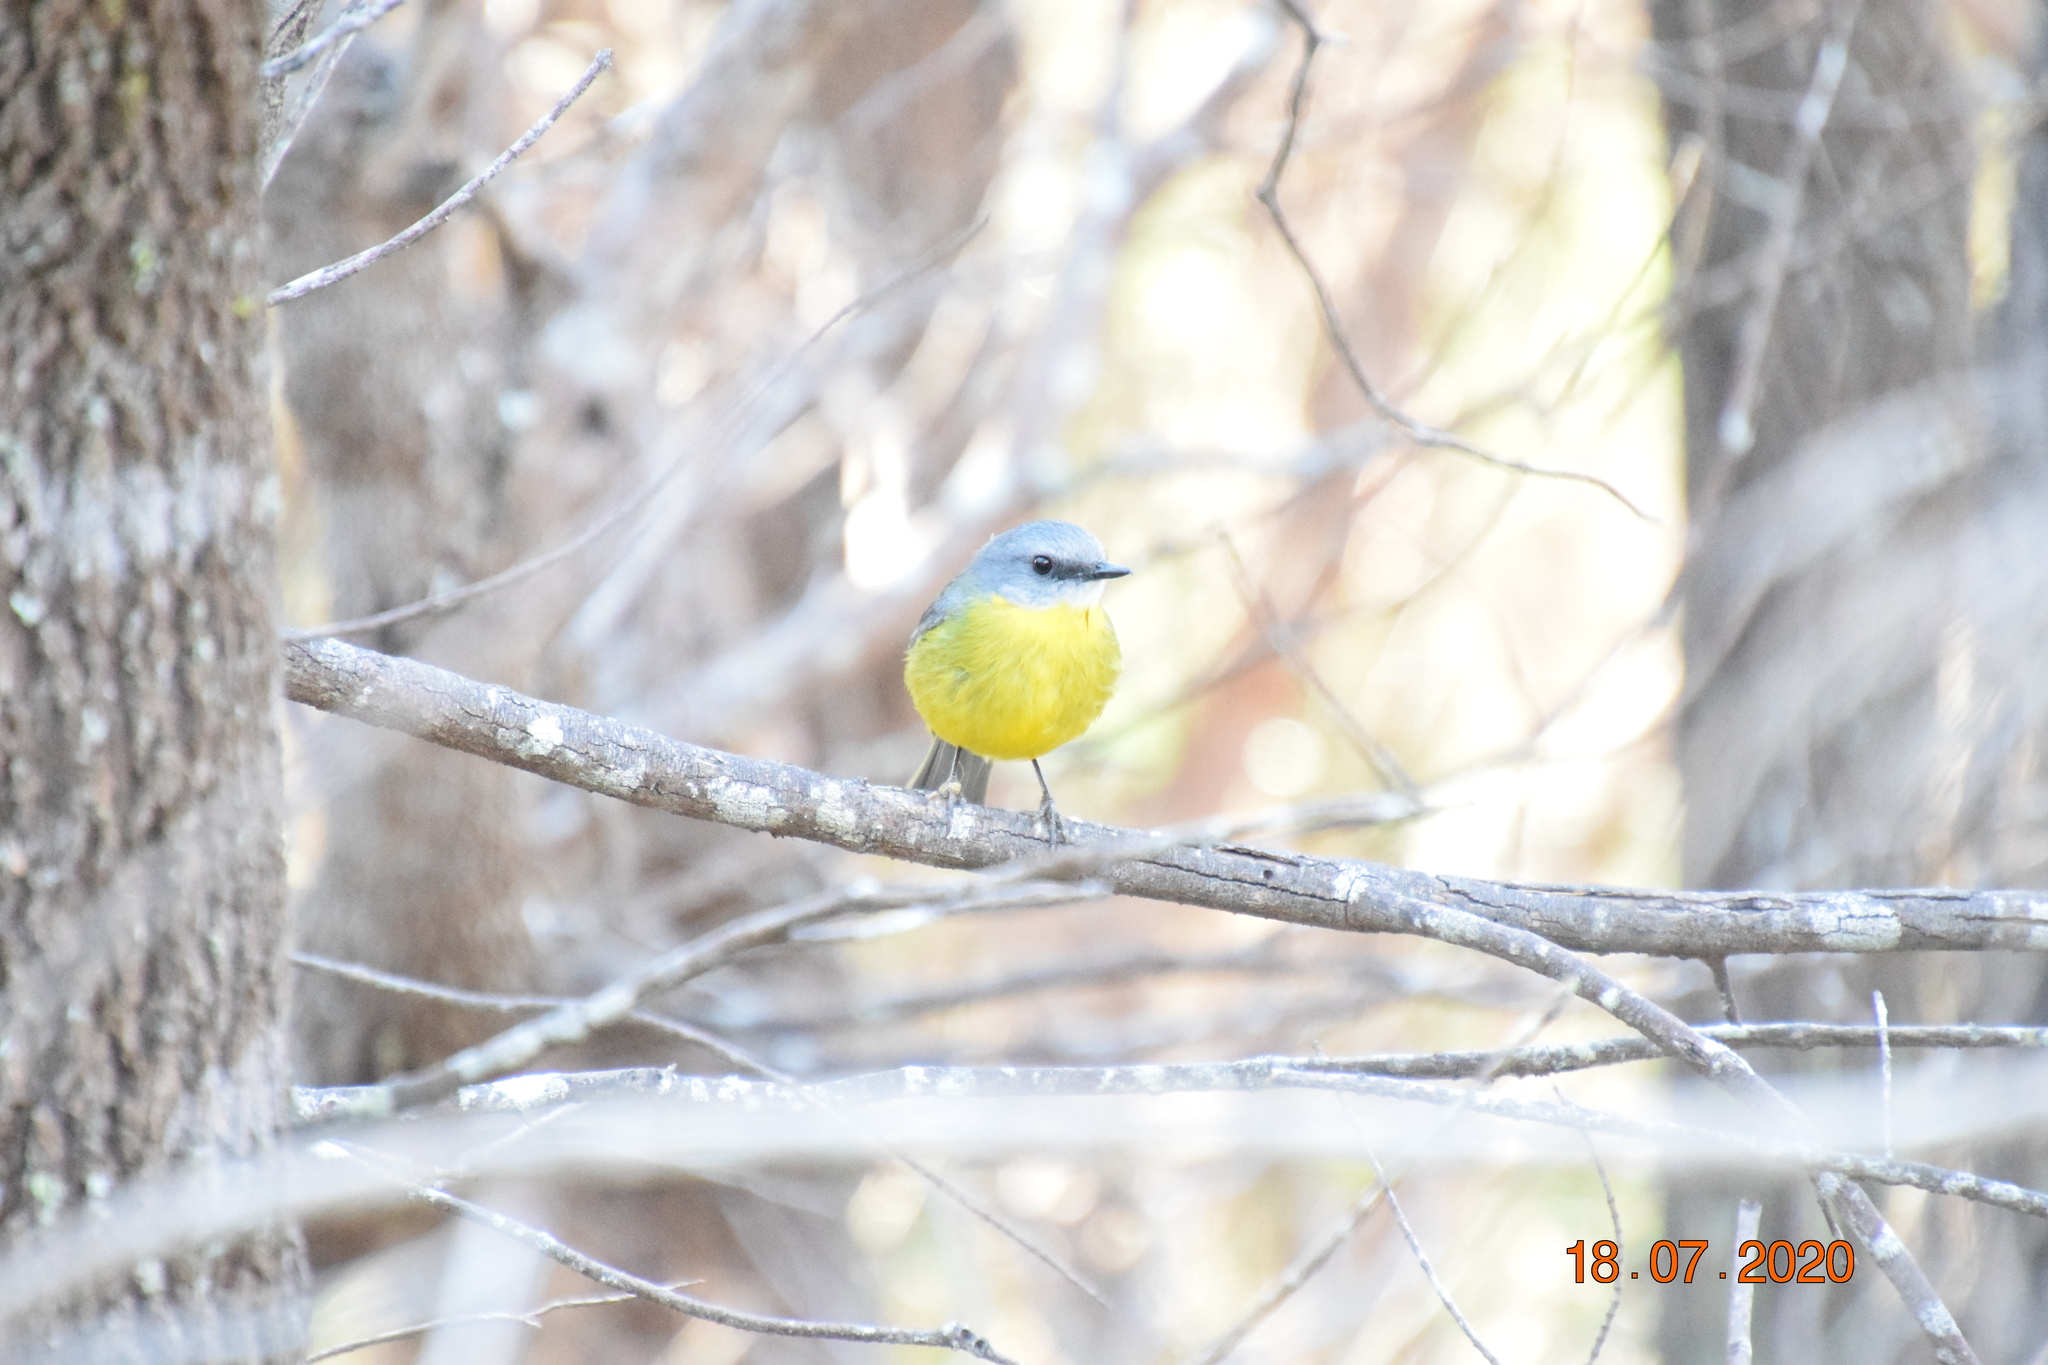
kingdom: Animalia
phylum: Chordata
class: Aves
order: Passeriformes
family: Petroicidae
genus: Eopsaltria
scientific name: Eopsaltria australis
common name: Eastern yellow robin
